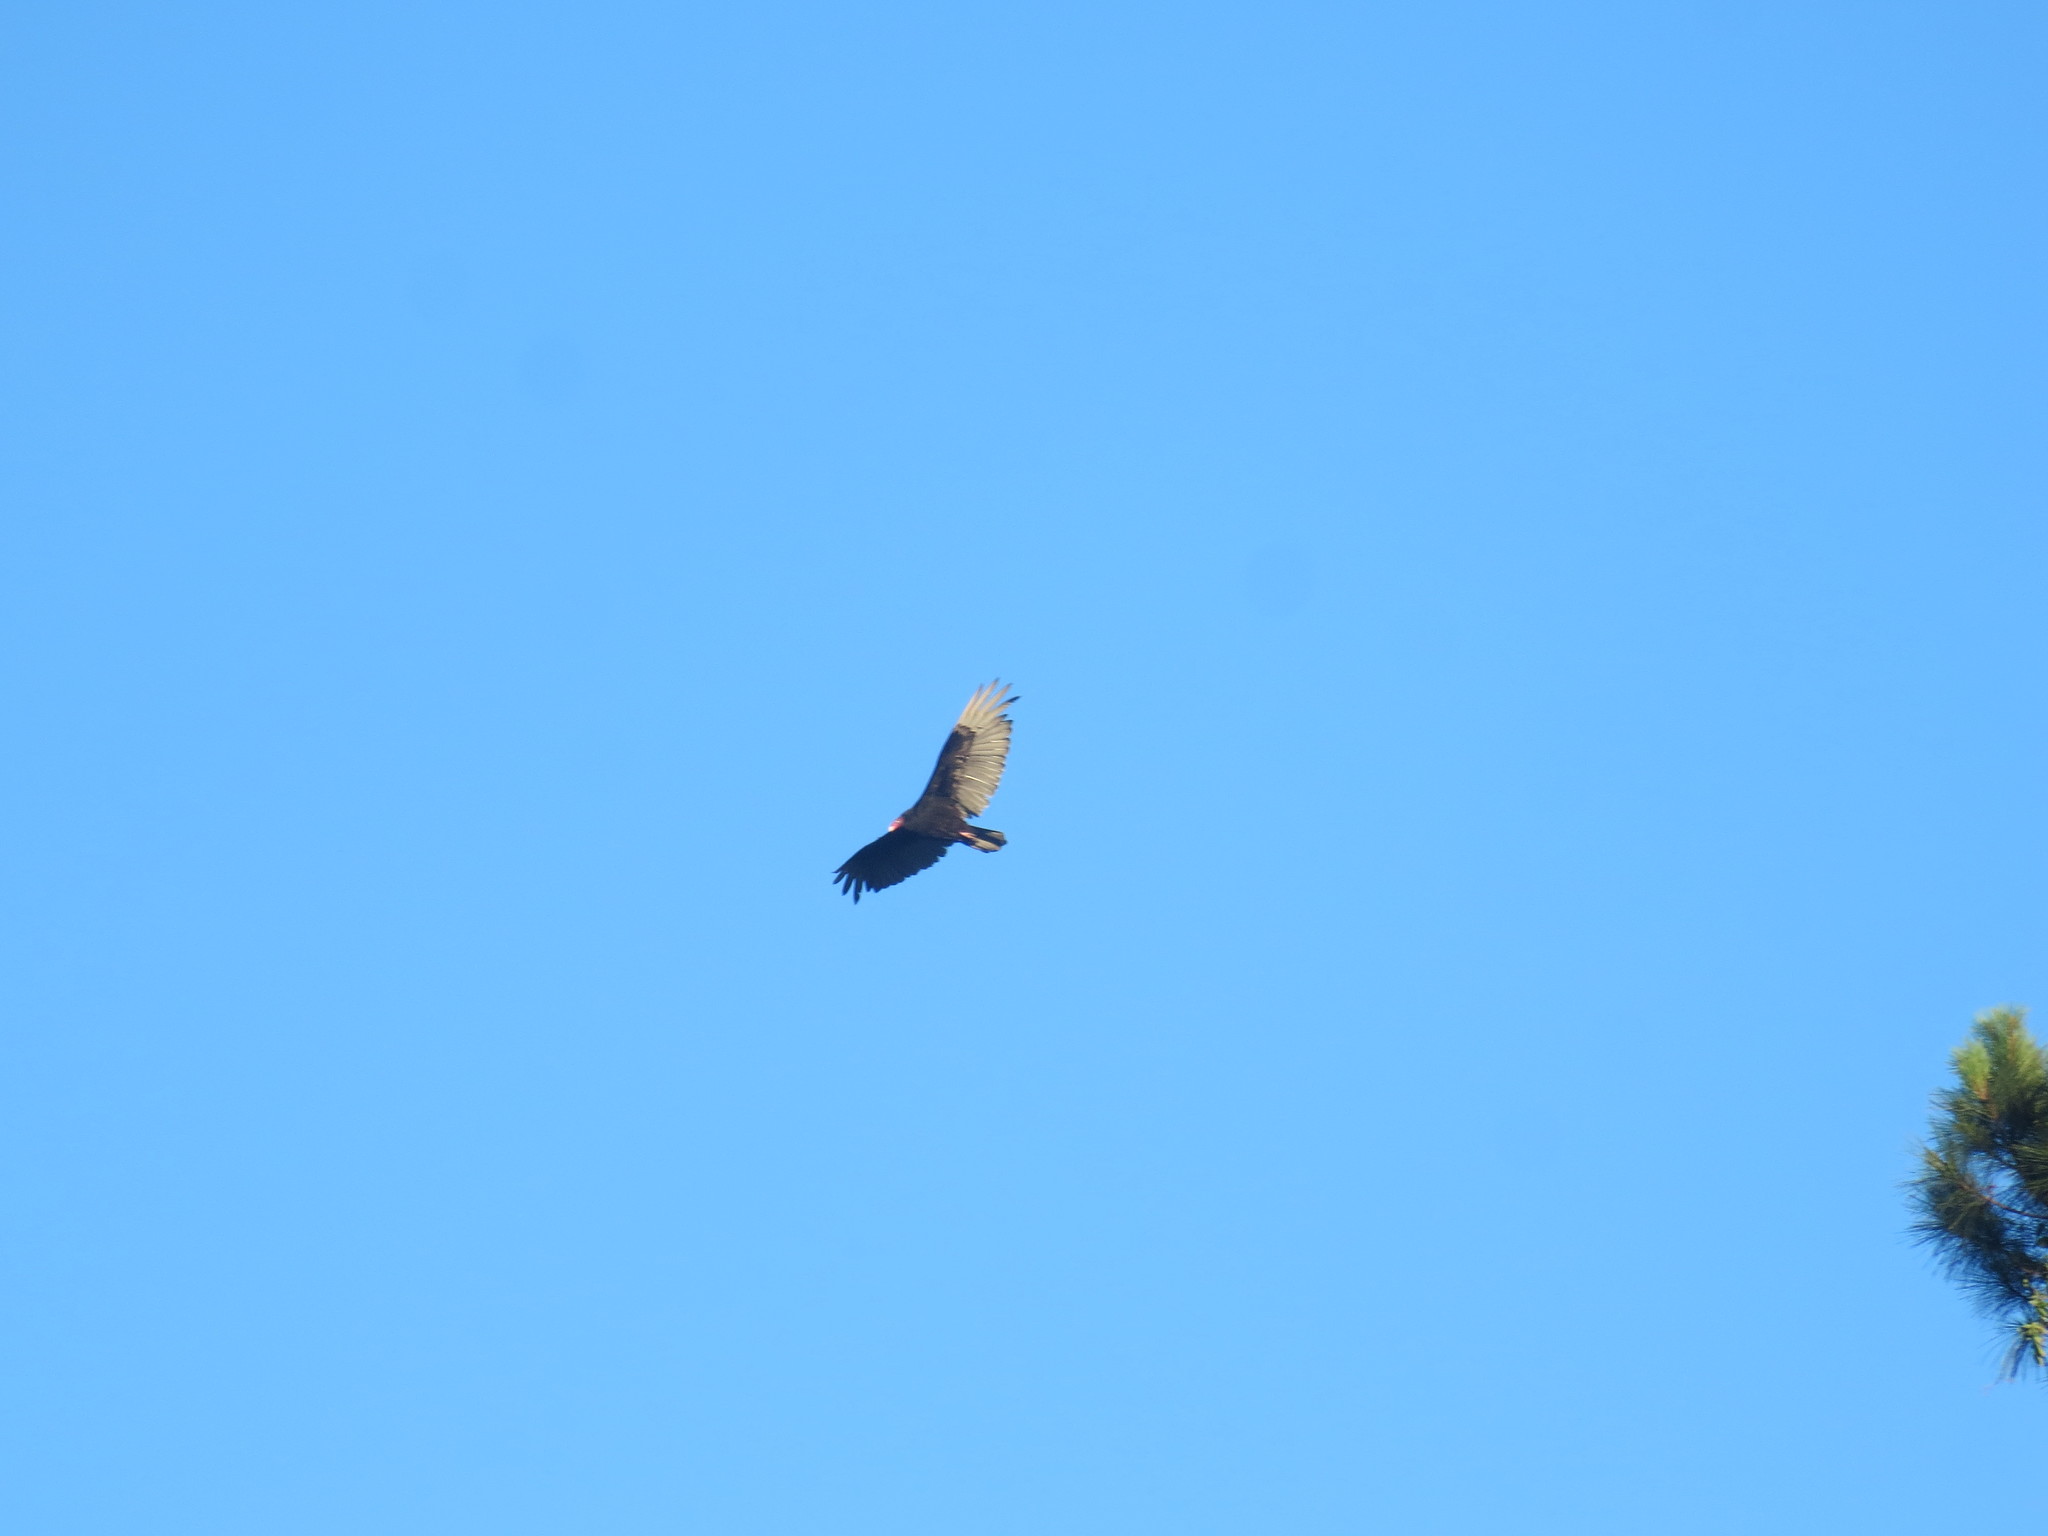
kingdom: Animalia
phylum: Chordata
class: Aves
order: Accipitriformes
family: Cathartidae
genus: Cathartes
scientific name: Cathartes aura
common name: Turkey vulture
